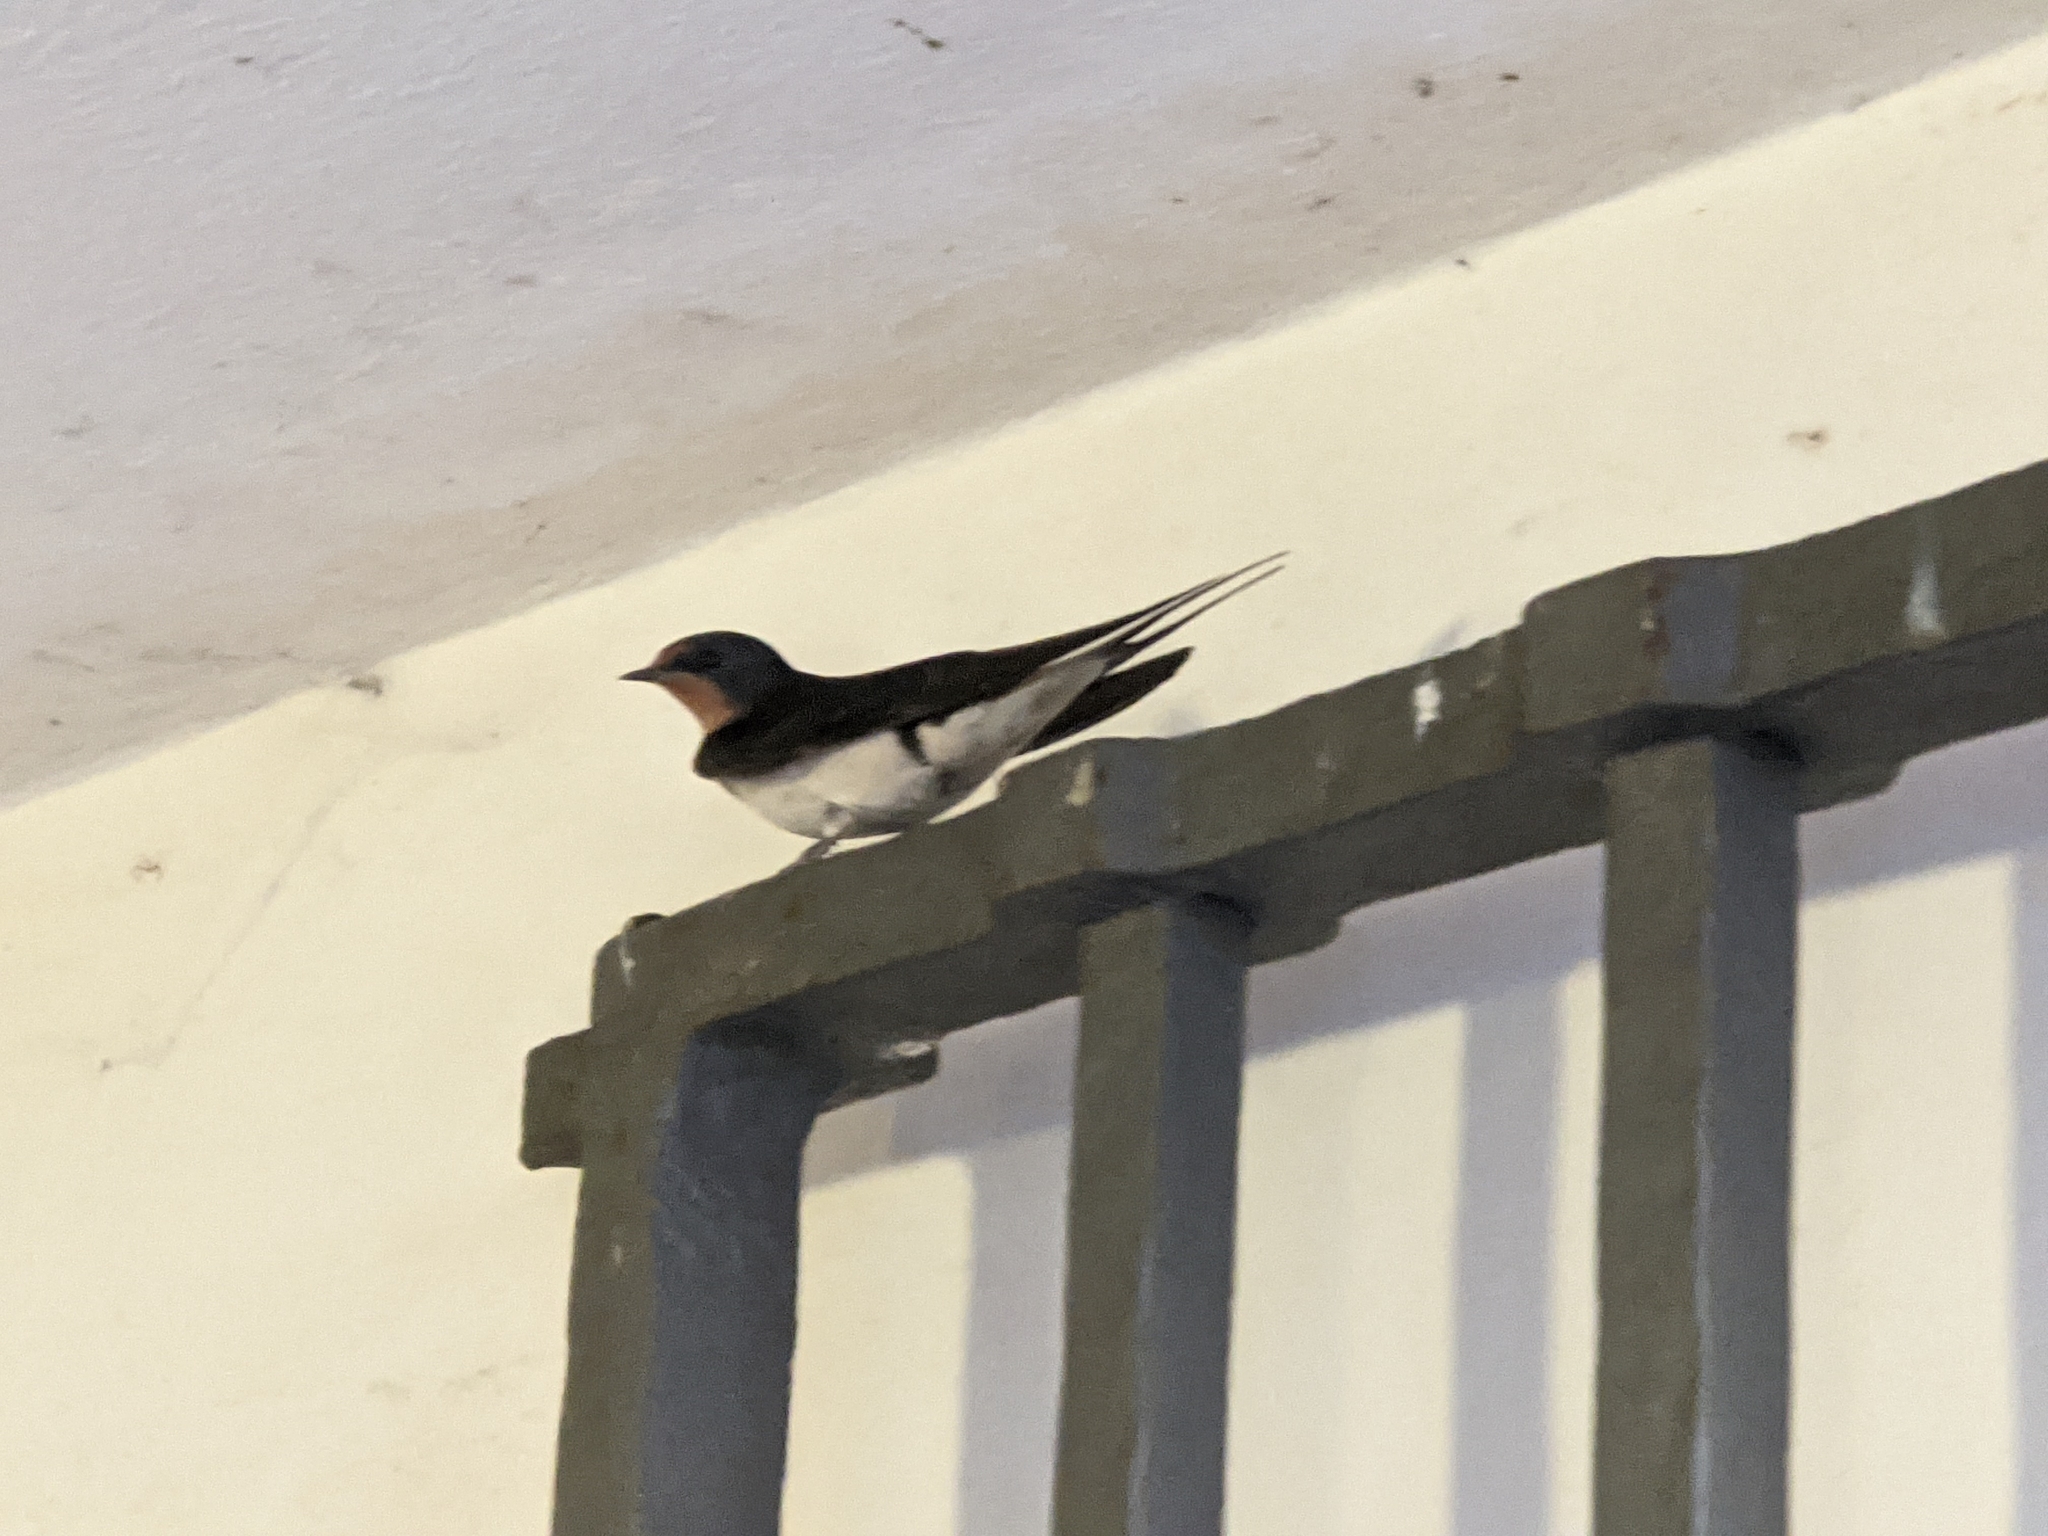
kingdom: Animalia
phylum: Chordata
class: Aves
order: Passeriformes
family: Hirundinidae
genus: Hirundo
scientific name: Hirundo rustica
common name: Barn swallow
